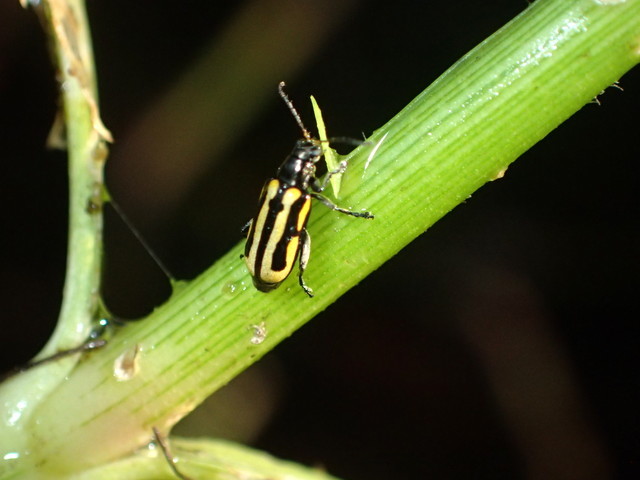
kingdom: Animalia
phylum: Arthropoda
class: Insecta
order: Coleoptera
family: Chrysomelidae
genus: Agasicles
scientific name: Agasicles hygrophila
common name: Alligatorweed flea beetle
